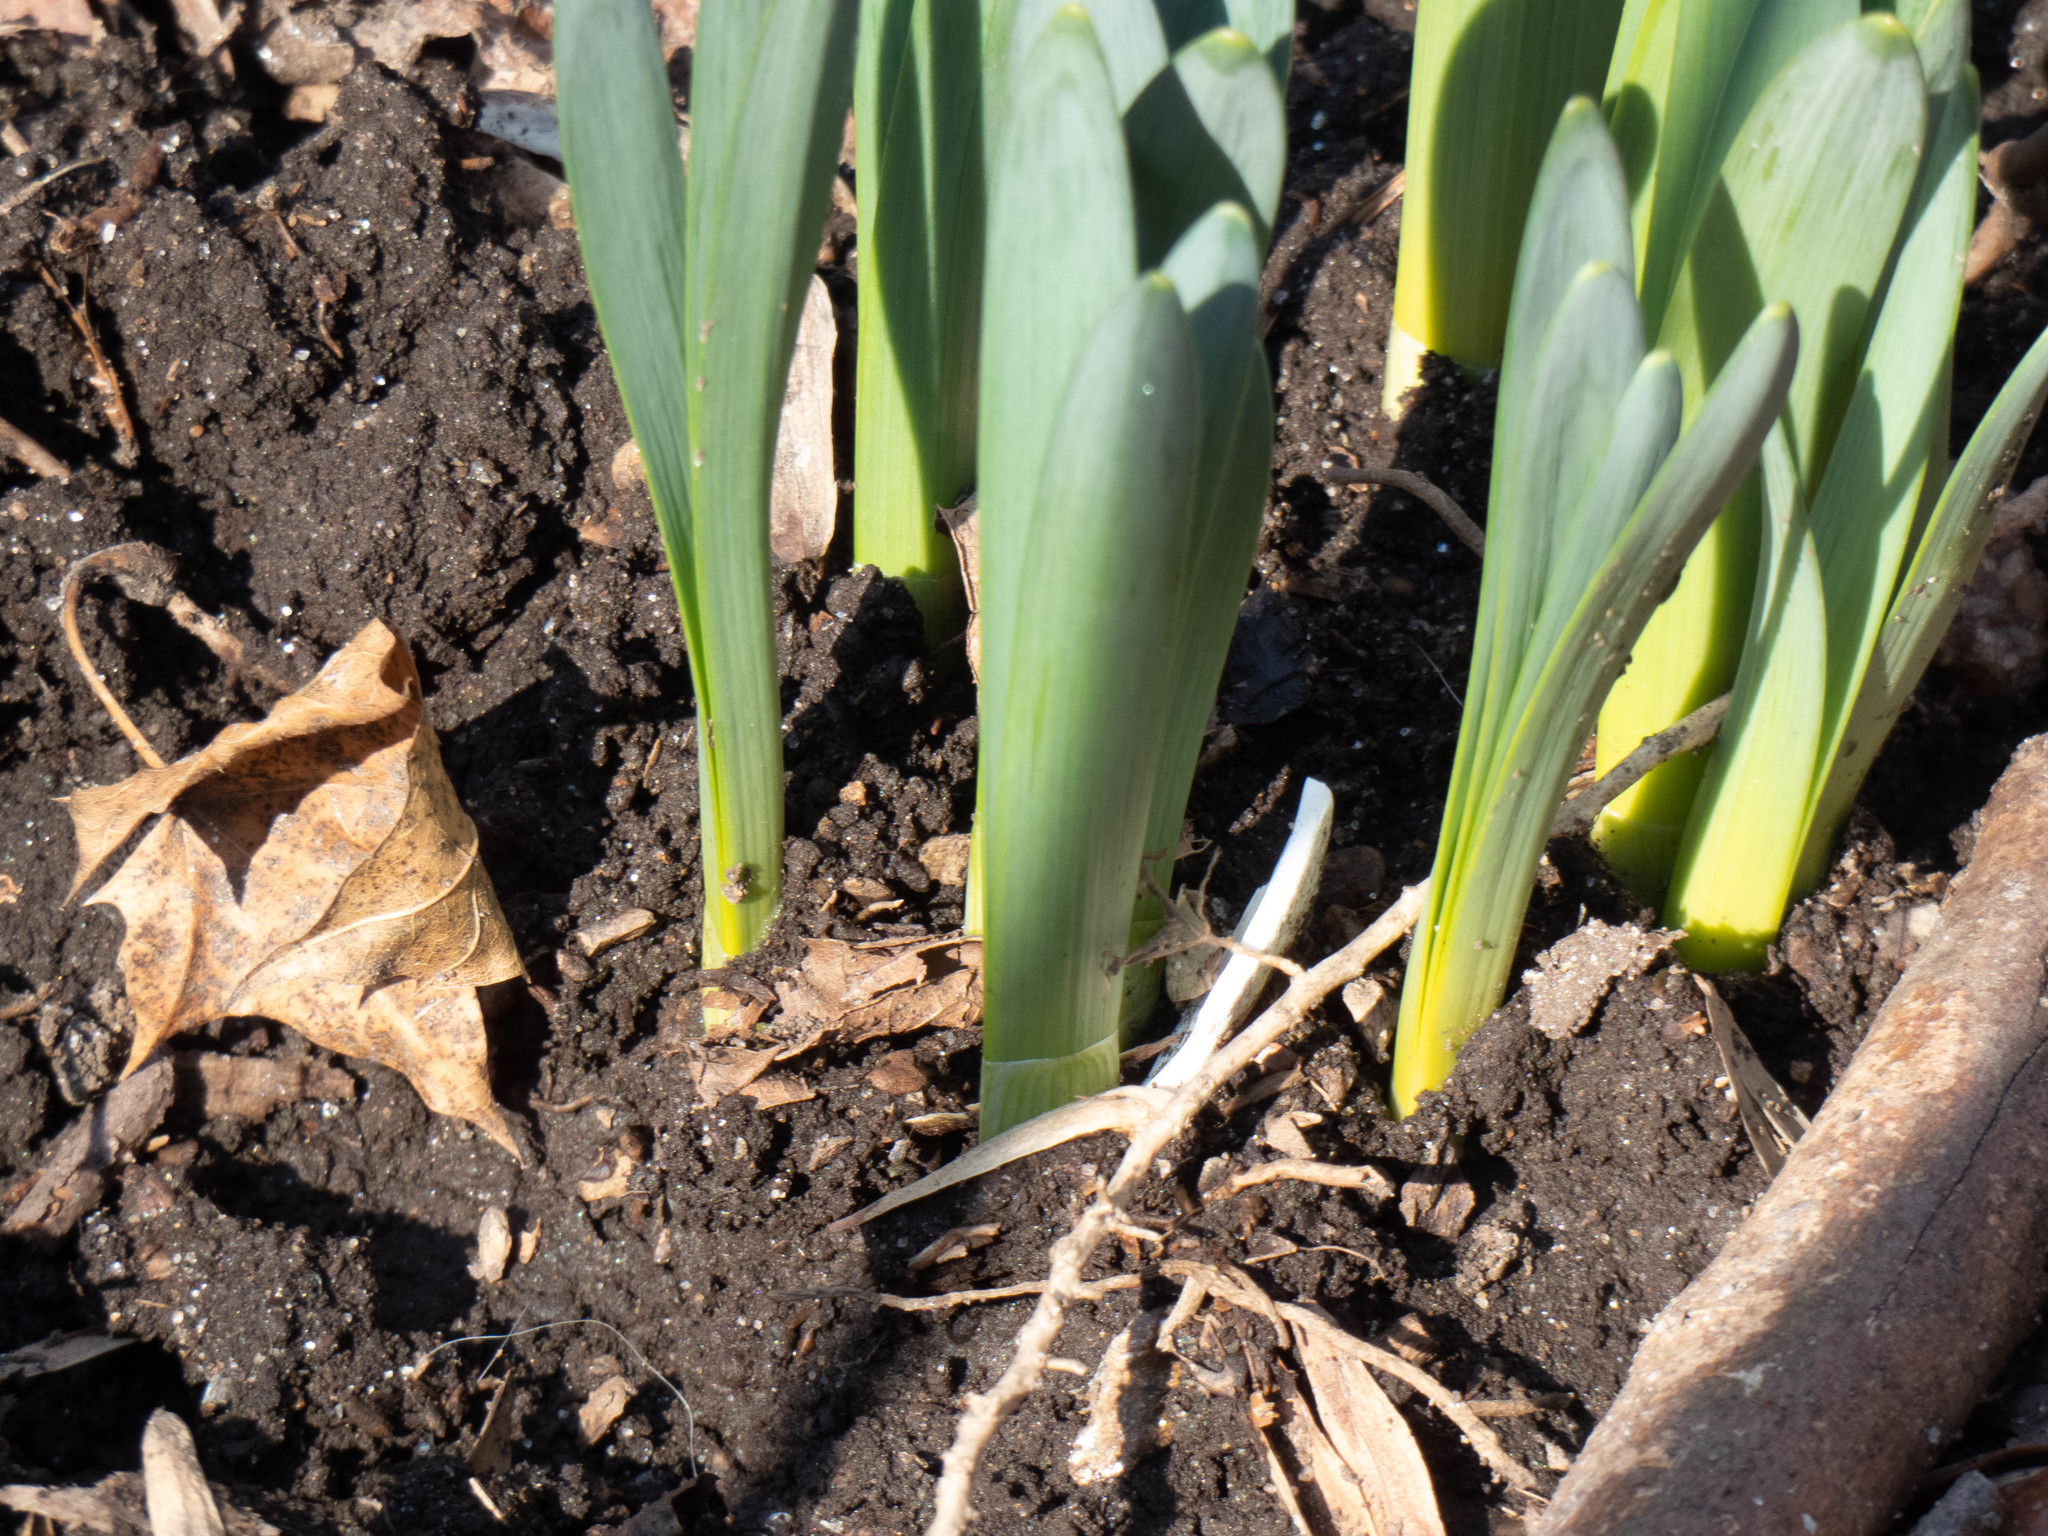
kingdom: Plantae
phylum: Tracheophyta
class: Liliopsida
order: Asparagales
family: Amaryllidaceae
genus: Narcissus
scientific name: Narcissus
